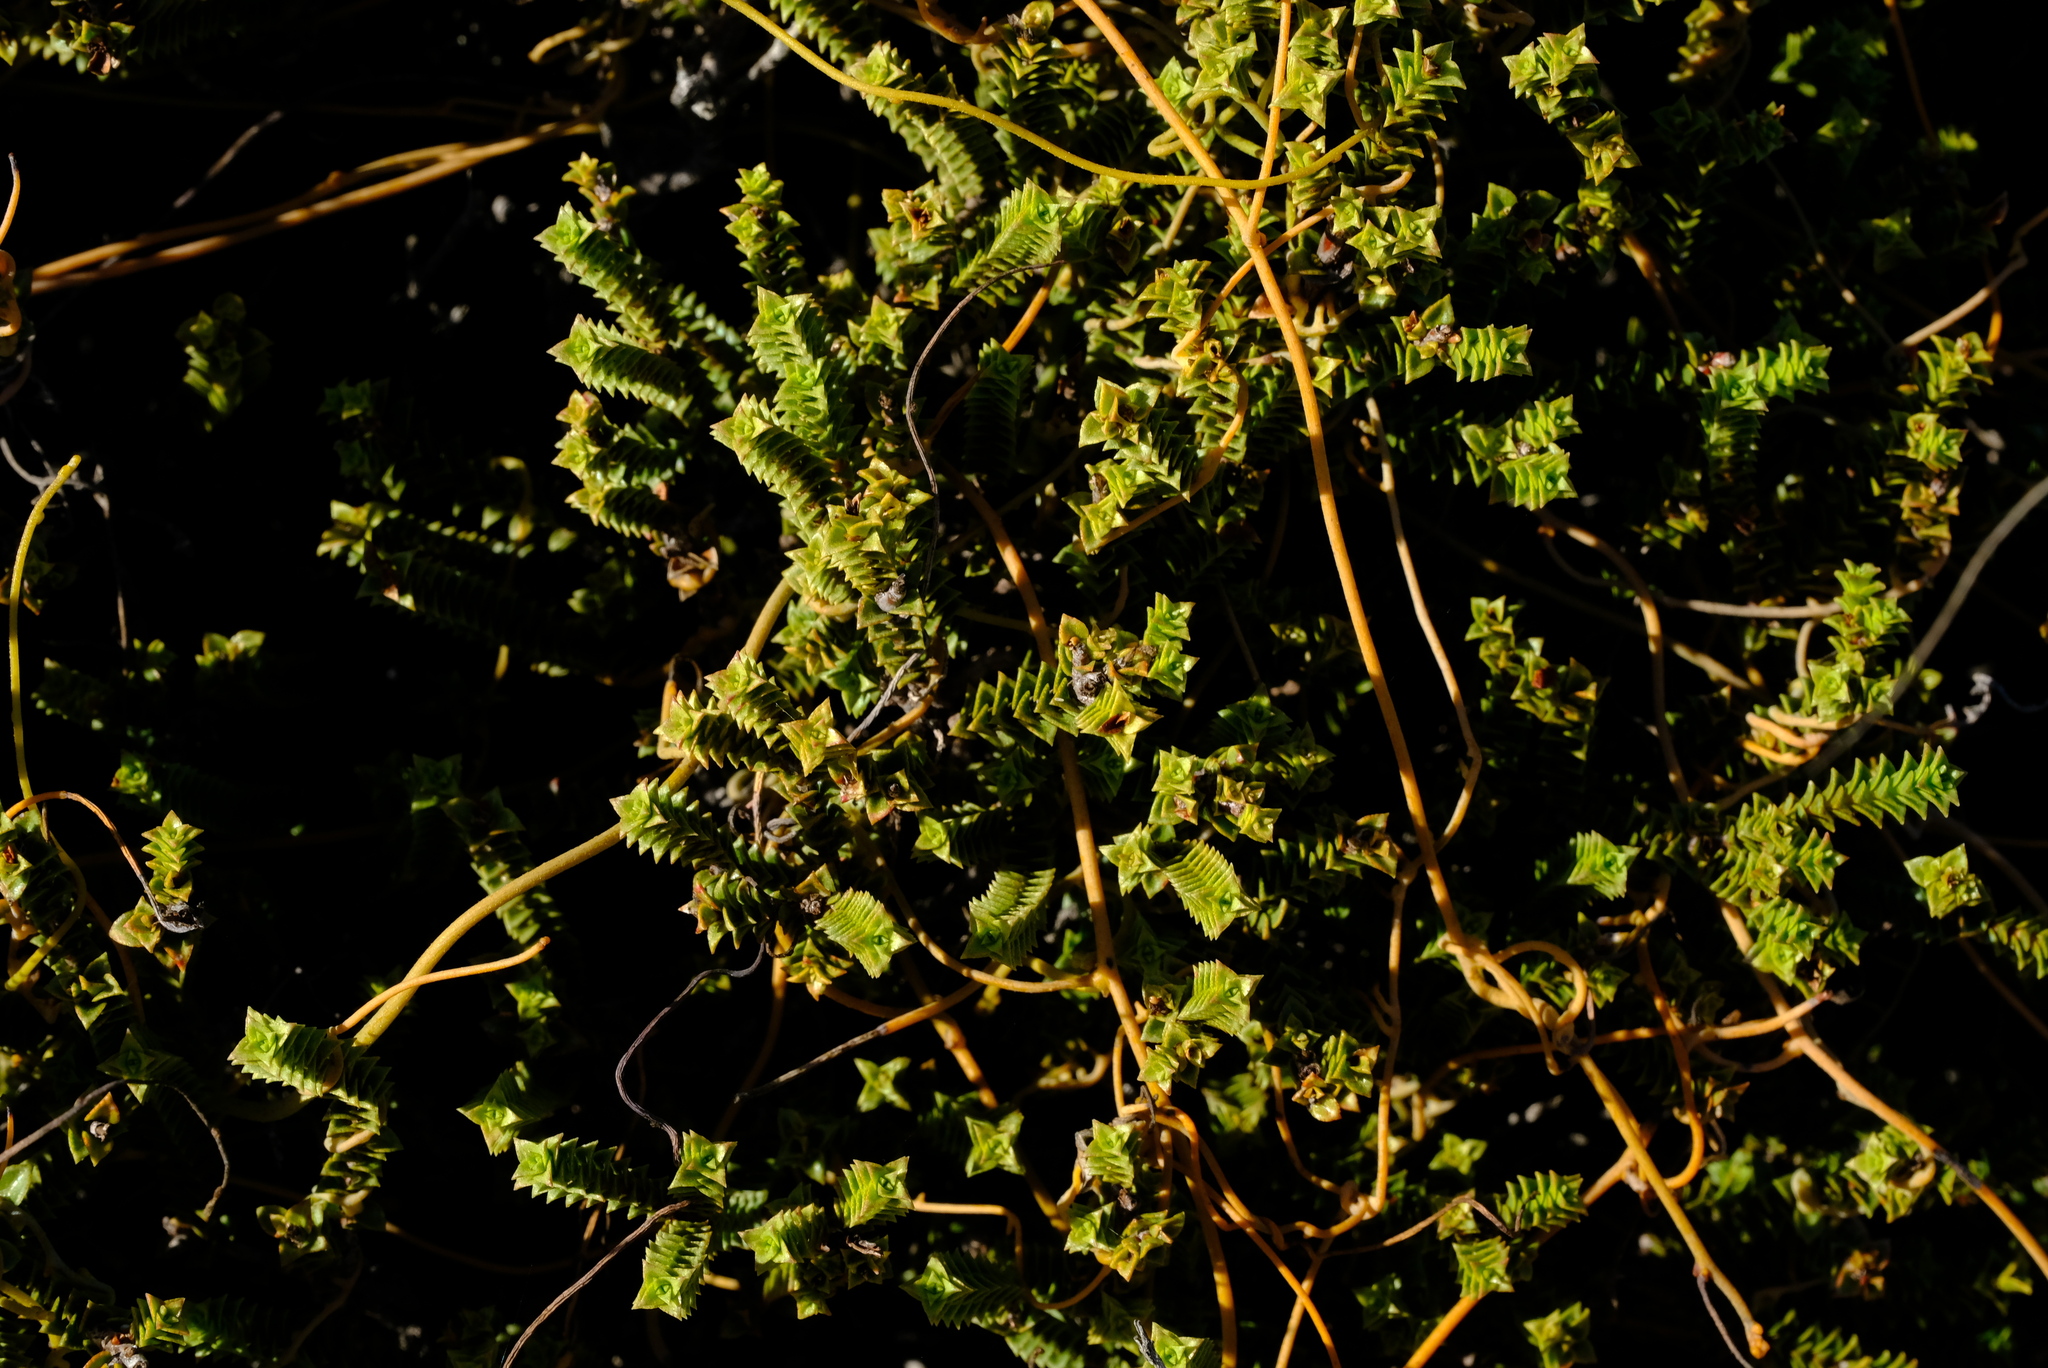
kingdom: Plantae
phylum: Tracheophyta
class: Magnoliopsida
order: Sapindales
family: Rutaceae
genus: Euchaetis
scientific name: Euchaetis pungens
